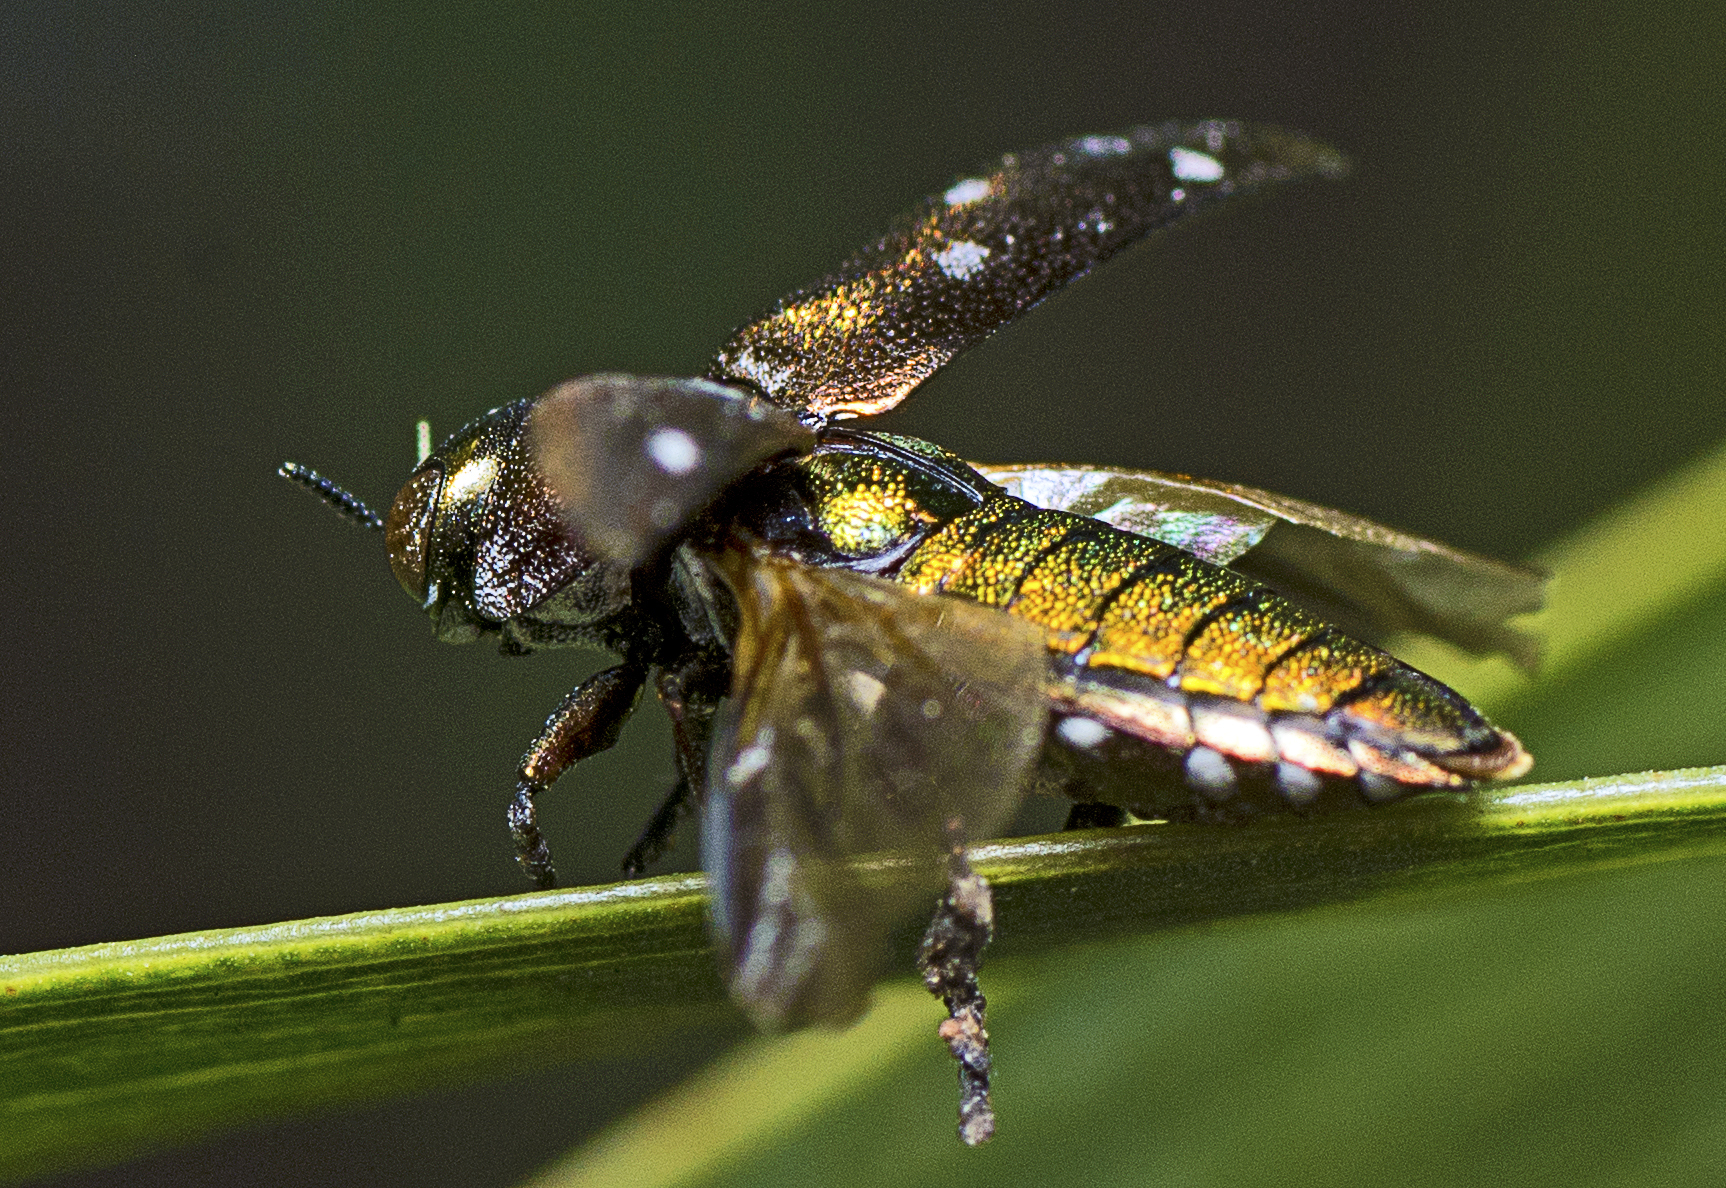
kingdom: Animalia
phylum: Arthropoda
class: Insecta
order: Coleoptera
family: Buprestidae
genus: Diphucrania
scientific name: Diphucrania albosparsa
